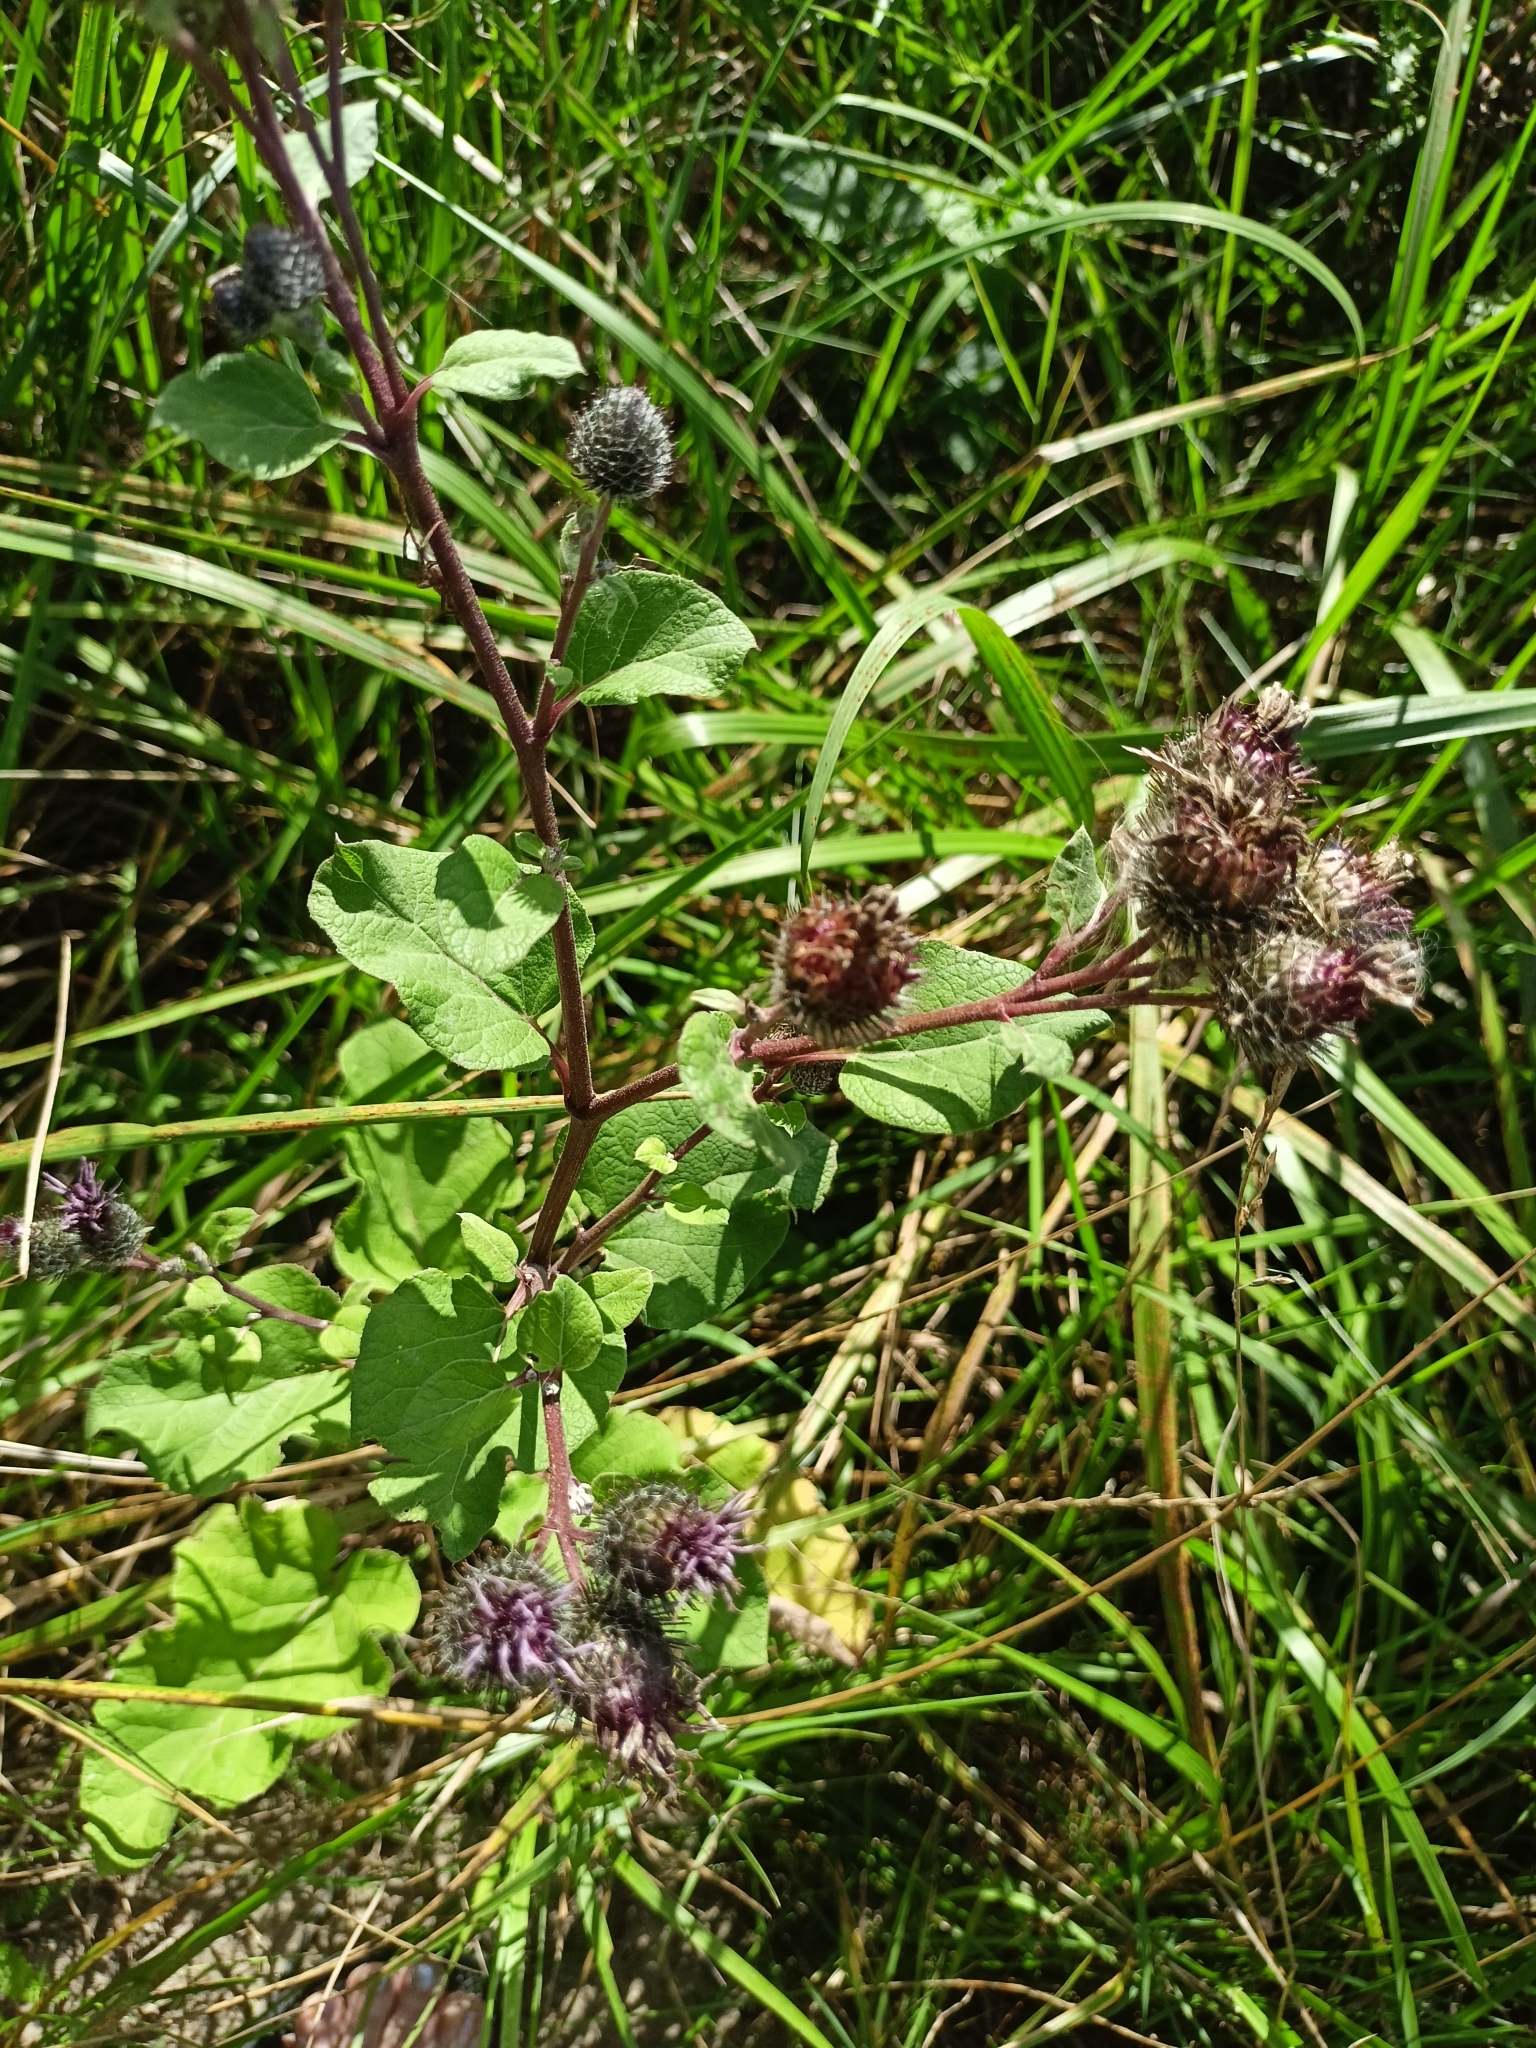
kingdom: Plantae
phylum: Tracheophyta
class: Magnoliopsida
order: Asterales
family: Asteraceae
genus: Cirsium
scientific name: Cirsium arvense
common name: Creeping thistle
